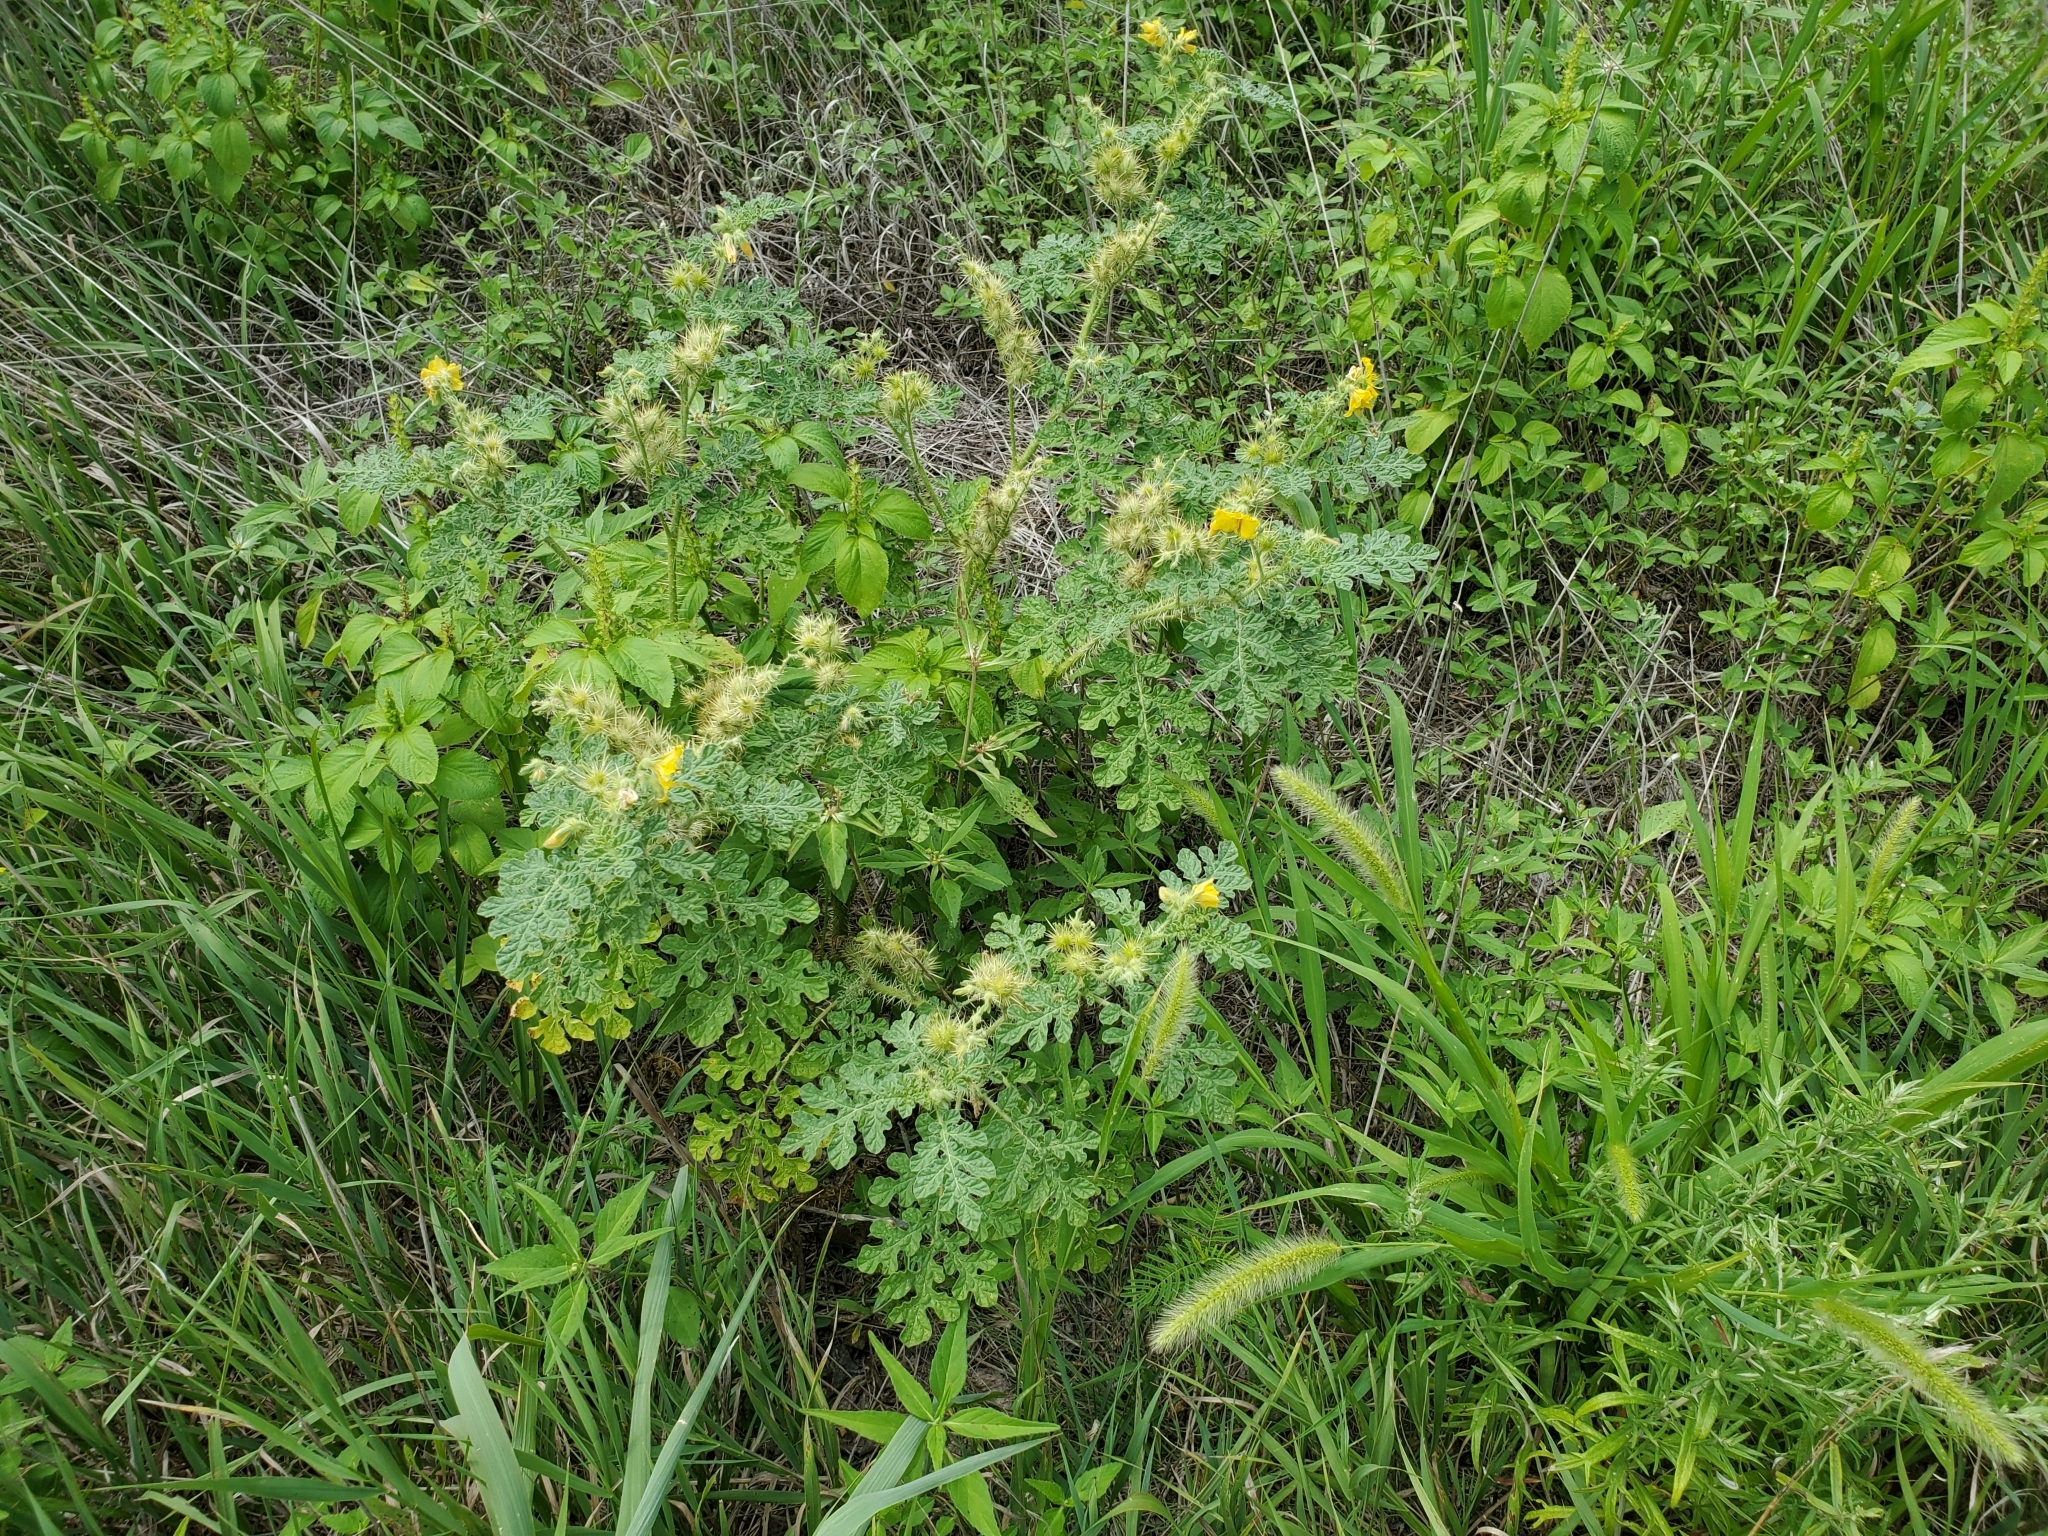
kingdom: Plantae
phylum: Tracheophyta
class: Magnoliopsida
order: Solanales
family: Solanaceae
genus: Solanum
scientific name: Solanum angustifolium
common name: Buffalobur nightshade
